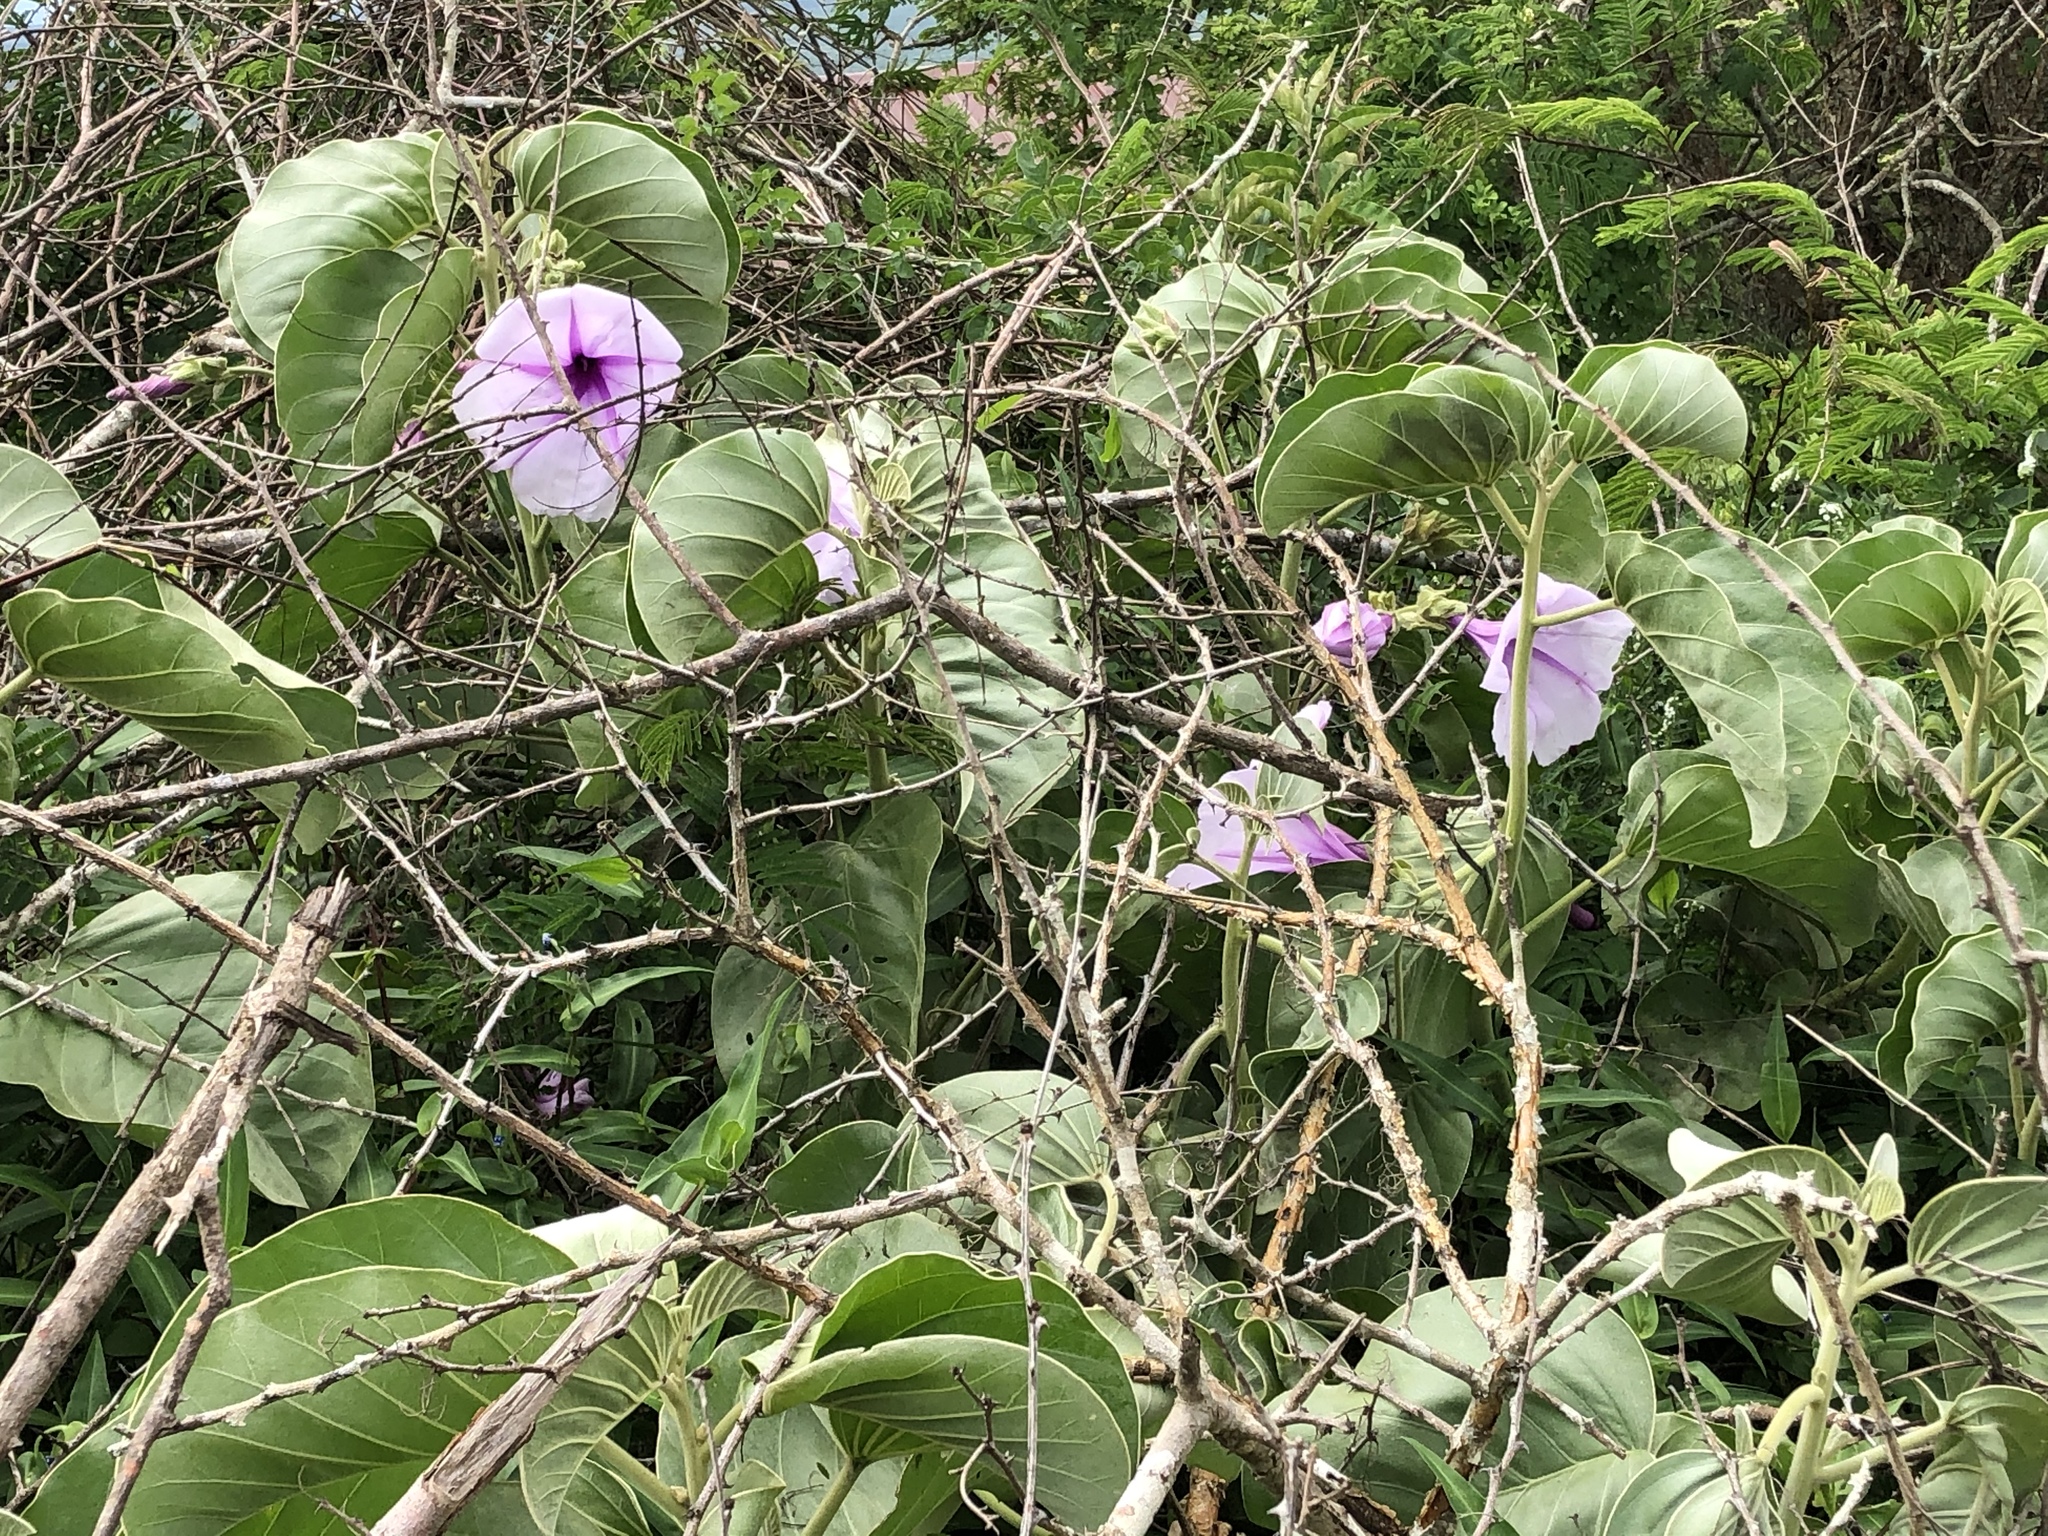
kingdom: Plantae
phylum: Tracheophyta
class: Magnoliopsida
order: Solanales
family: Convolvulaceae
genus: Ipomoea
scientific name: Ipomoea hildebrandtii
